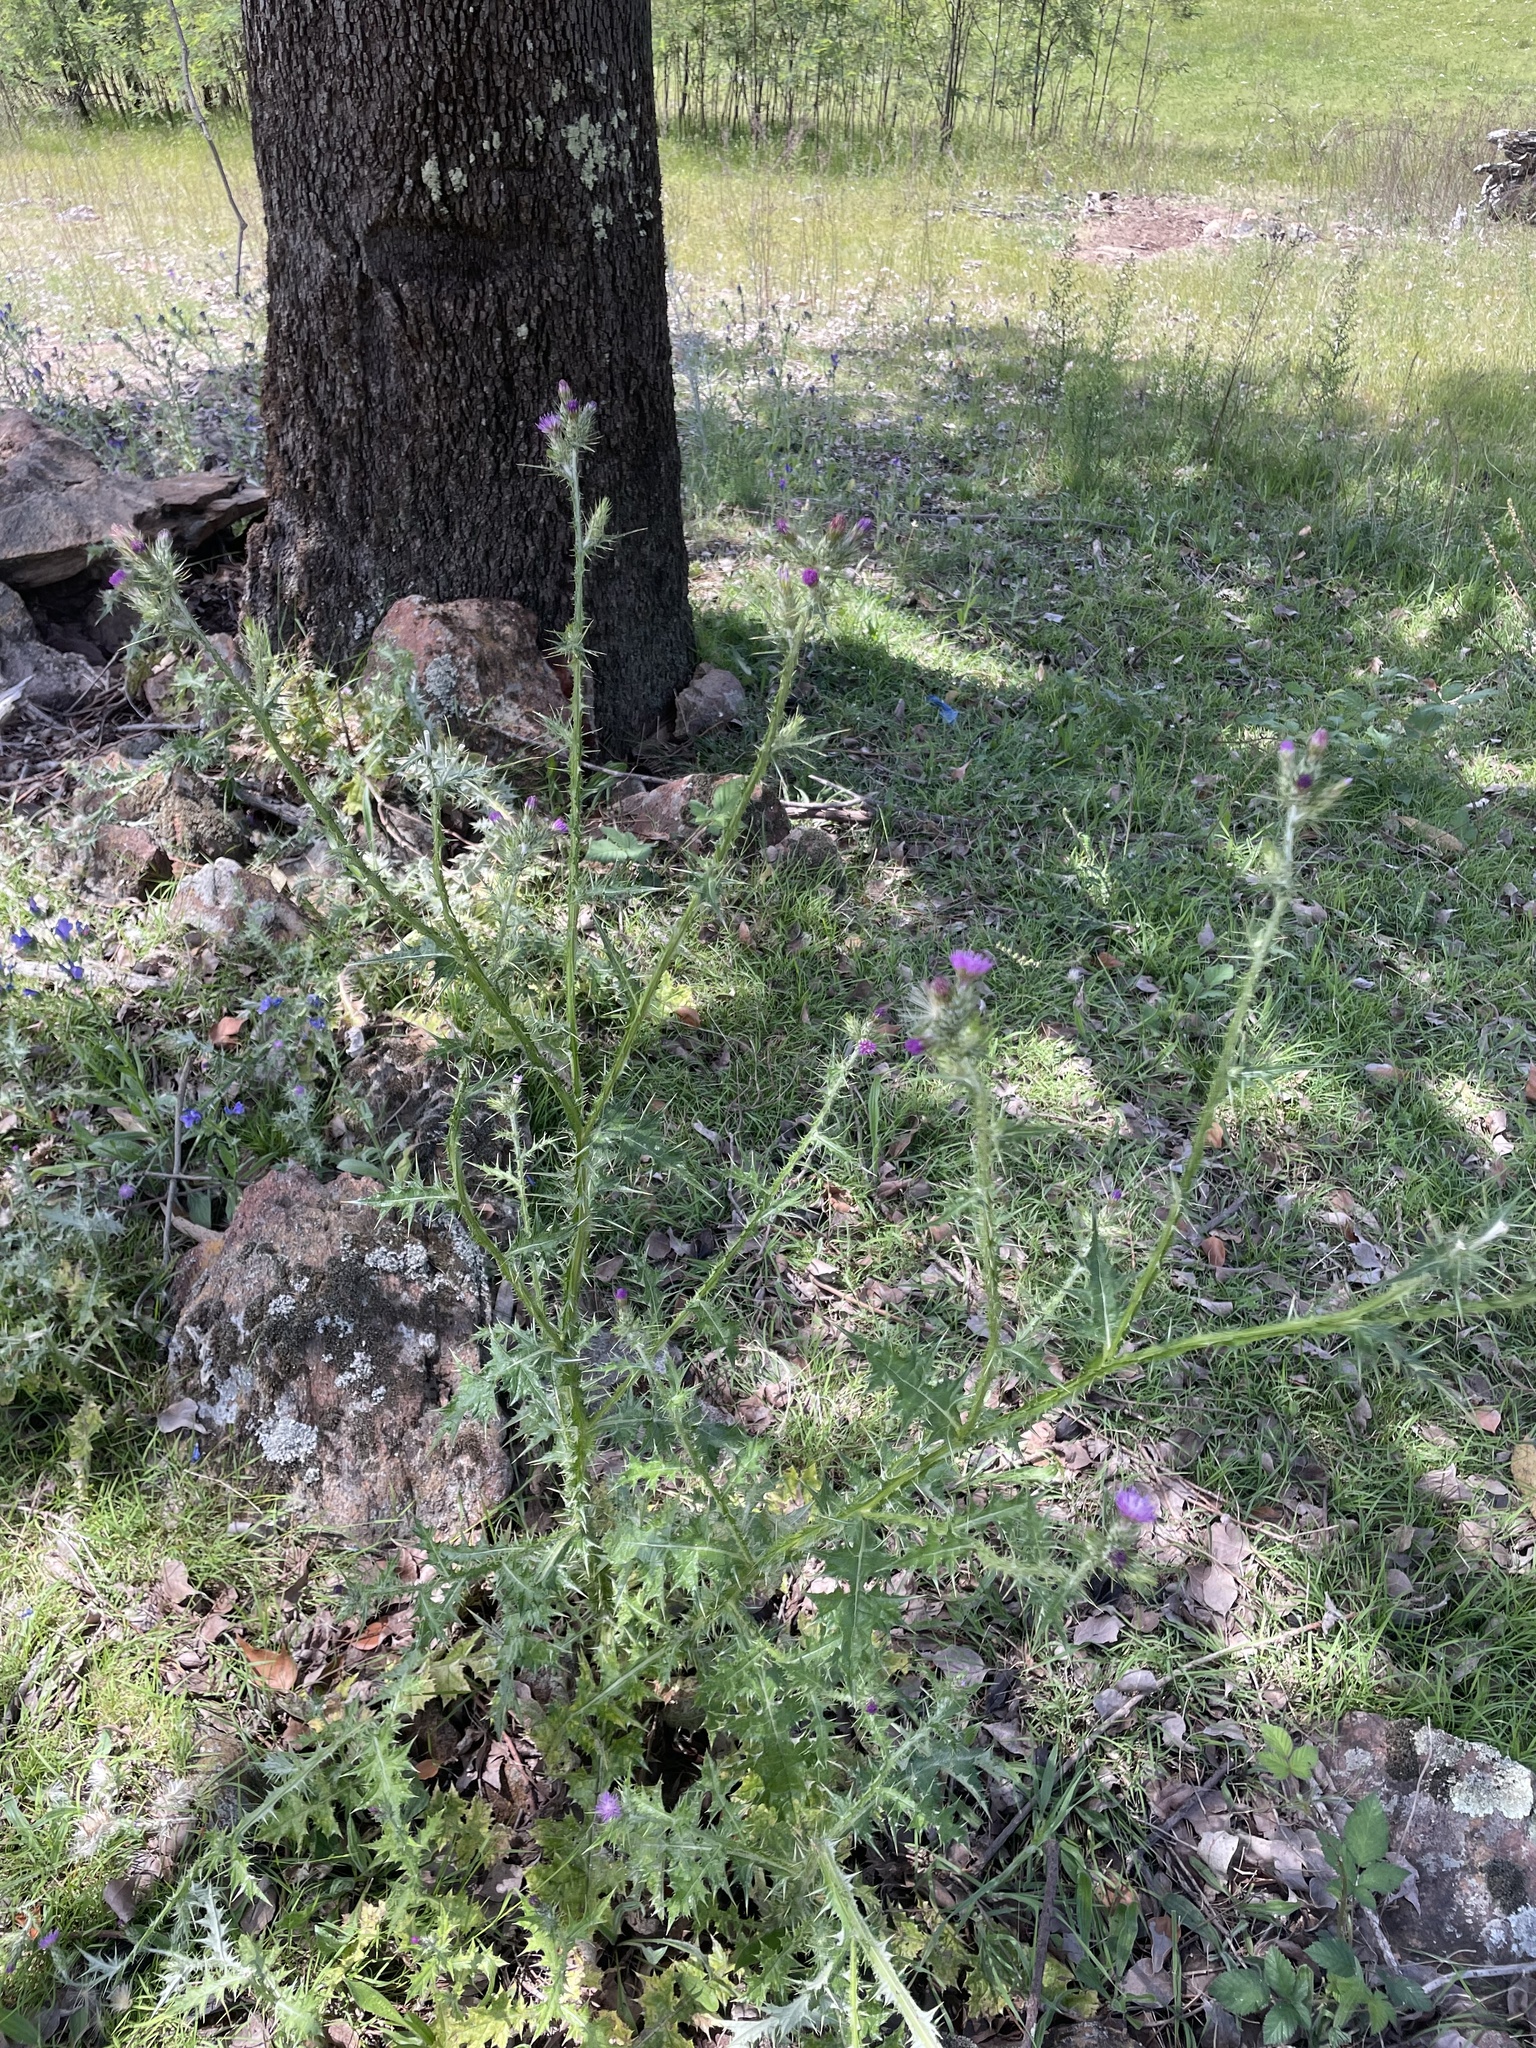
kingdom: Plantae
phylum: Tracheophyta
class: Magnoliopsida
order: Asterales
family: Asteraceae
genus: Carduus
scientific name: Carduus tenuiflorus
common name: Slender thistle
